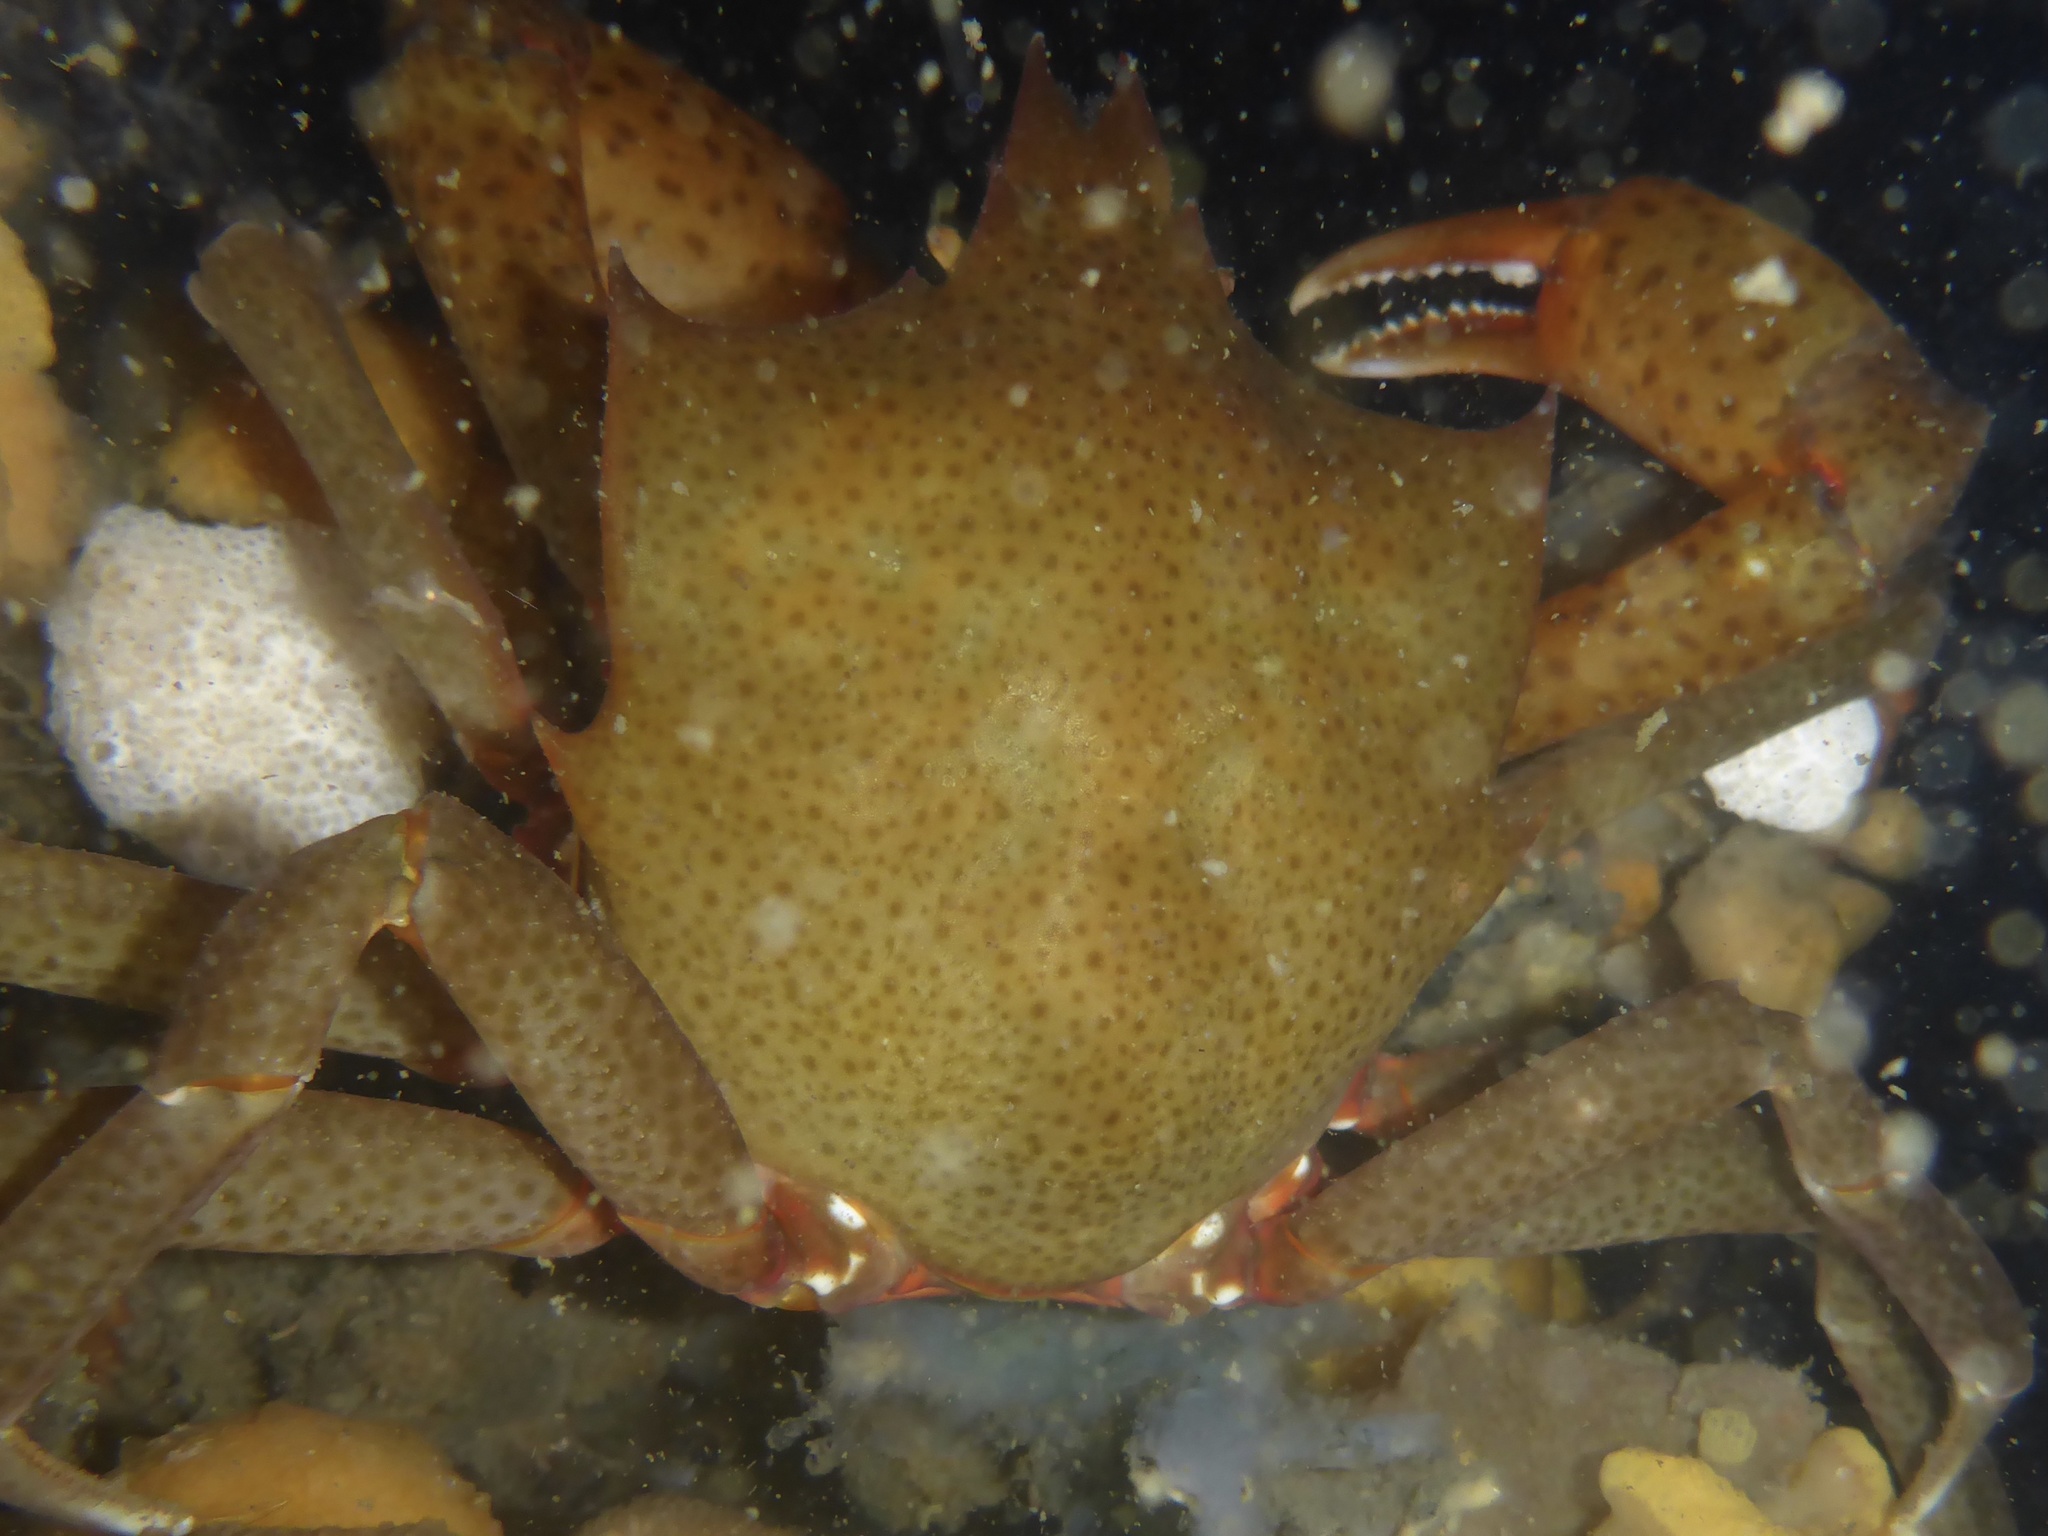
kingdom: Animalia
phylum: Arthropoda
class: Malacostraca
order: Decapoda
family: Epialtidae
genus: Pugettia
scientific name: Pugettia producta
